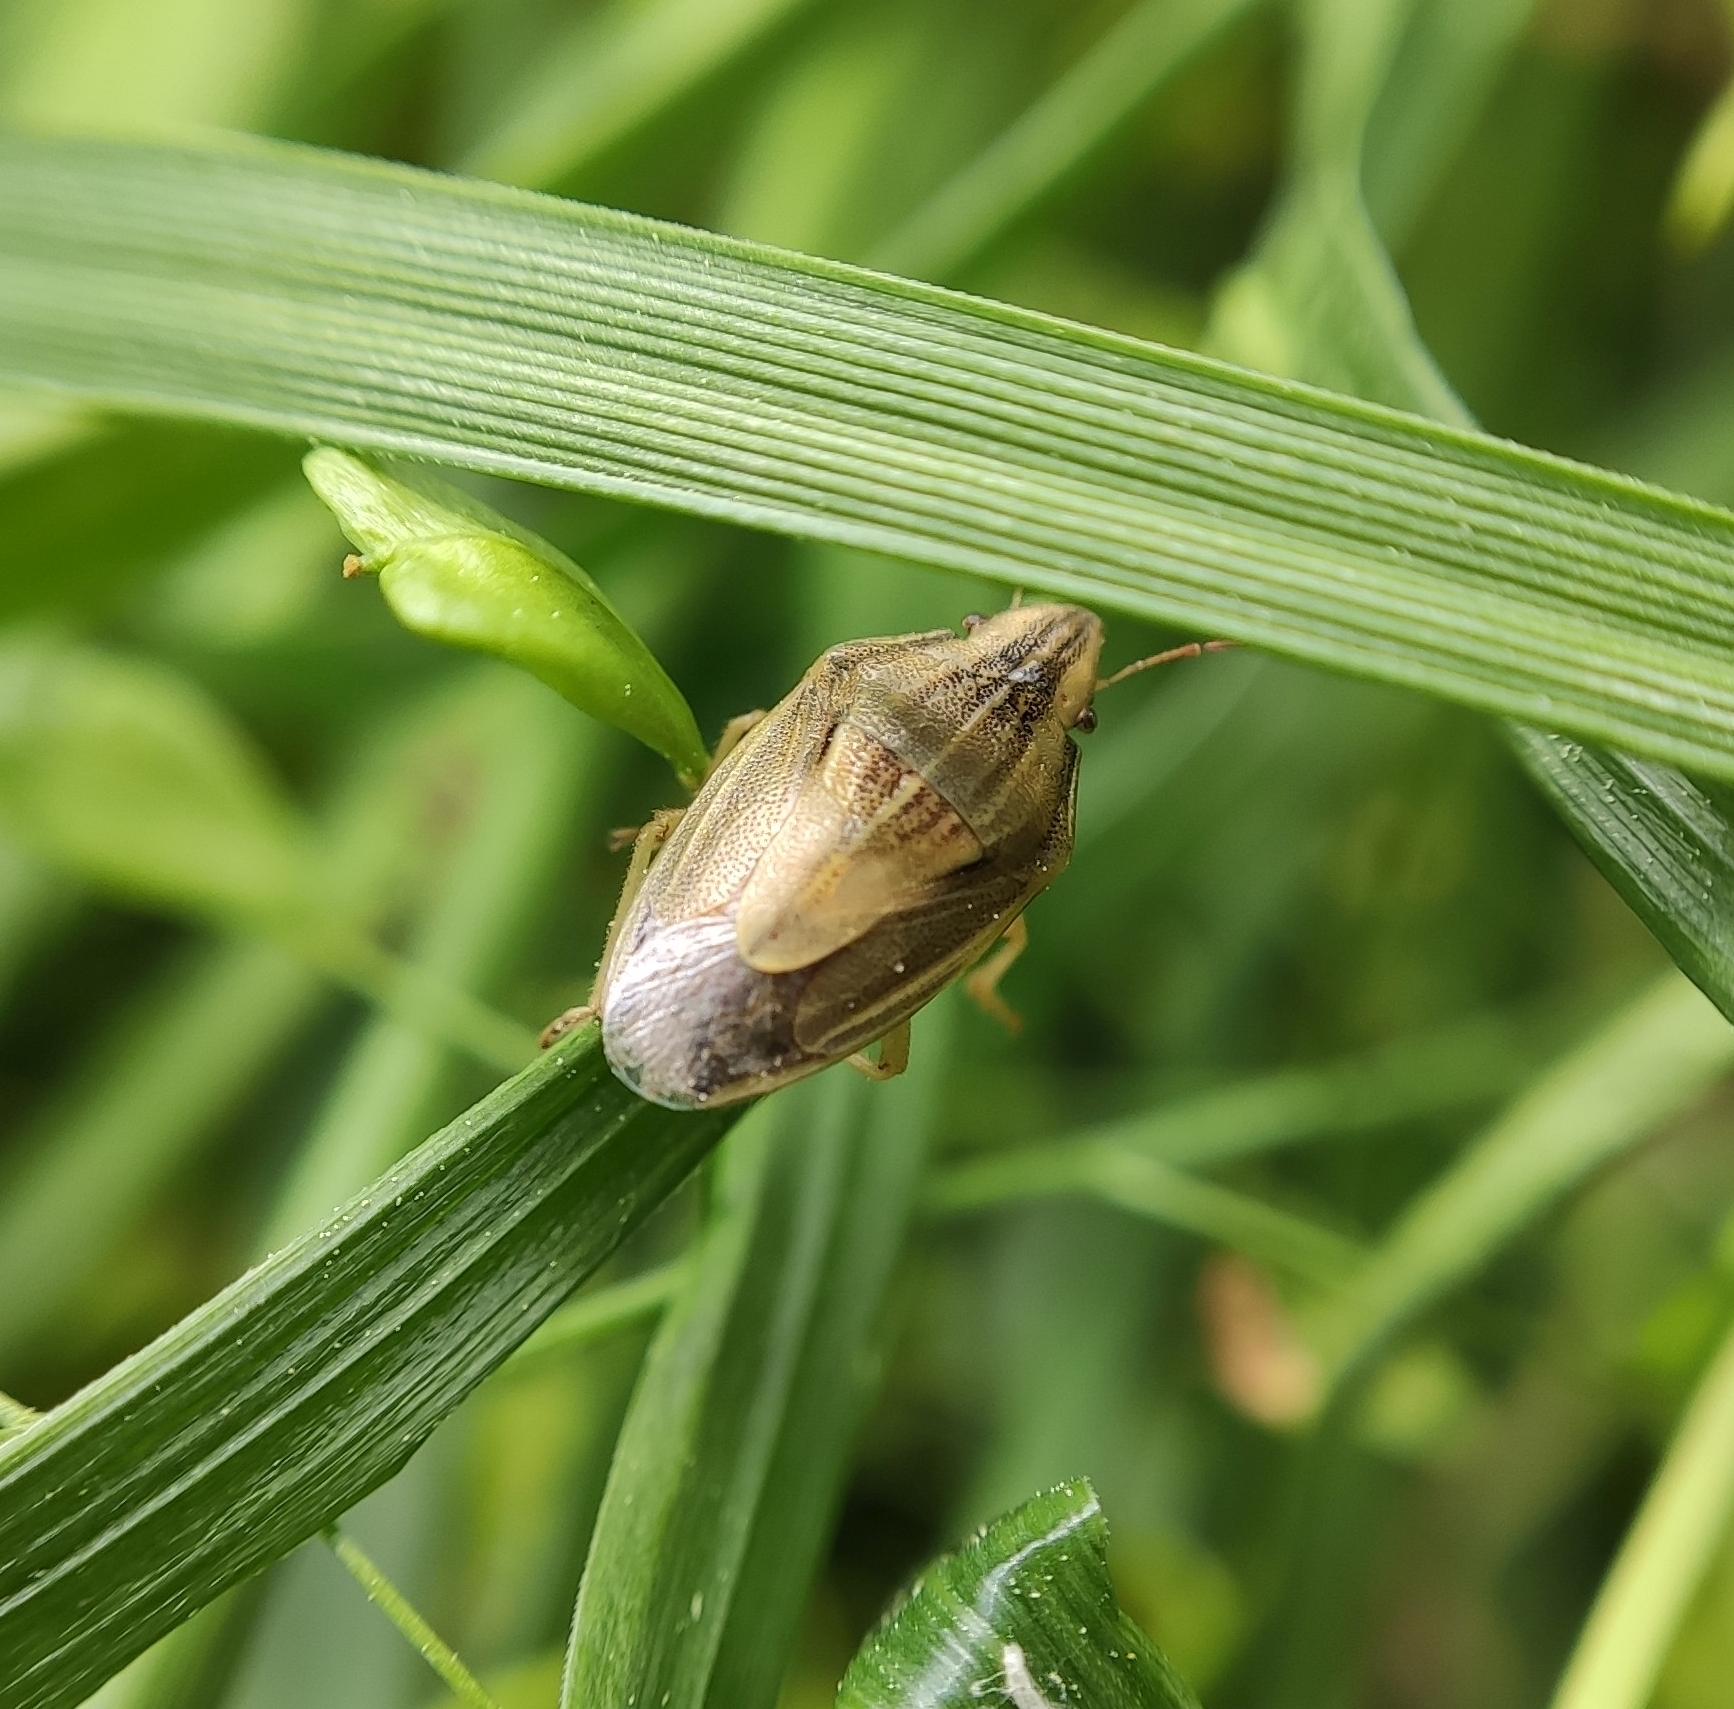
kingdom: Animalia
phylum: Arthropoda
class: Insecta
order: Hemiptera
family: Pentatomidae
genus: Aelia
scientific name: Aelia acuminata
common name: Bishop's mitre
